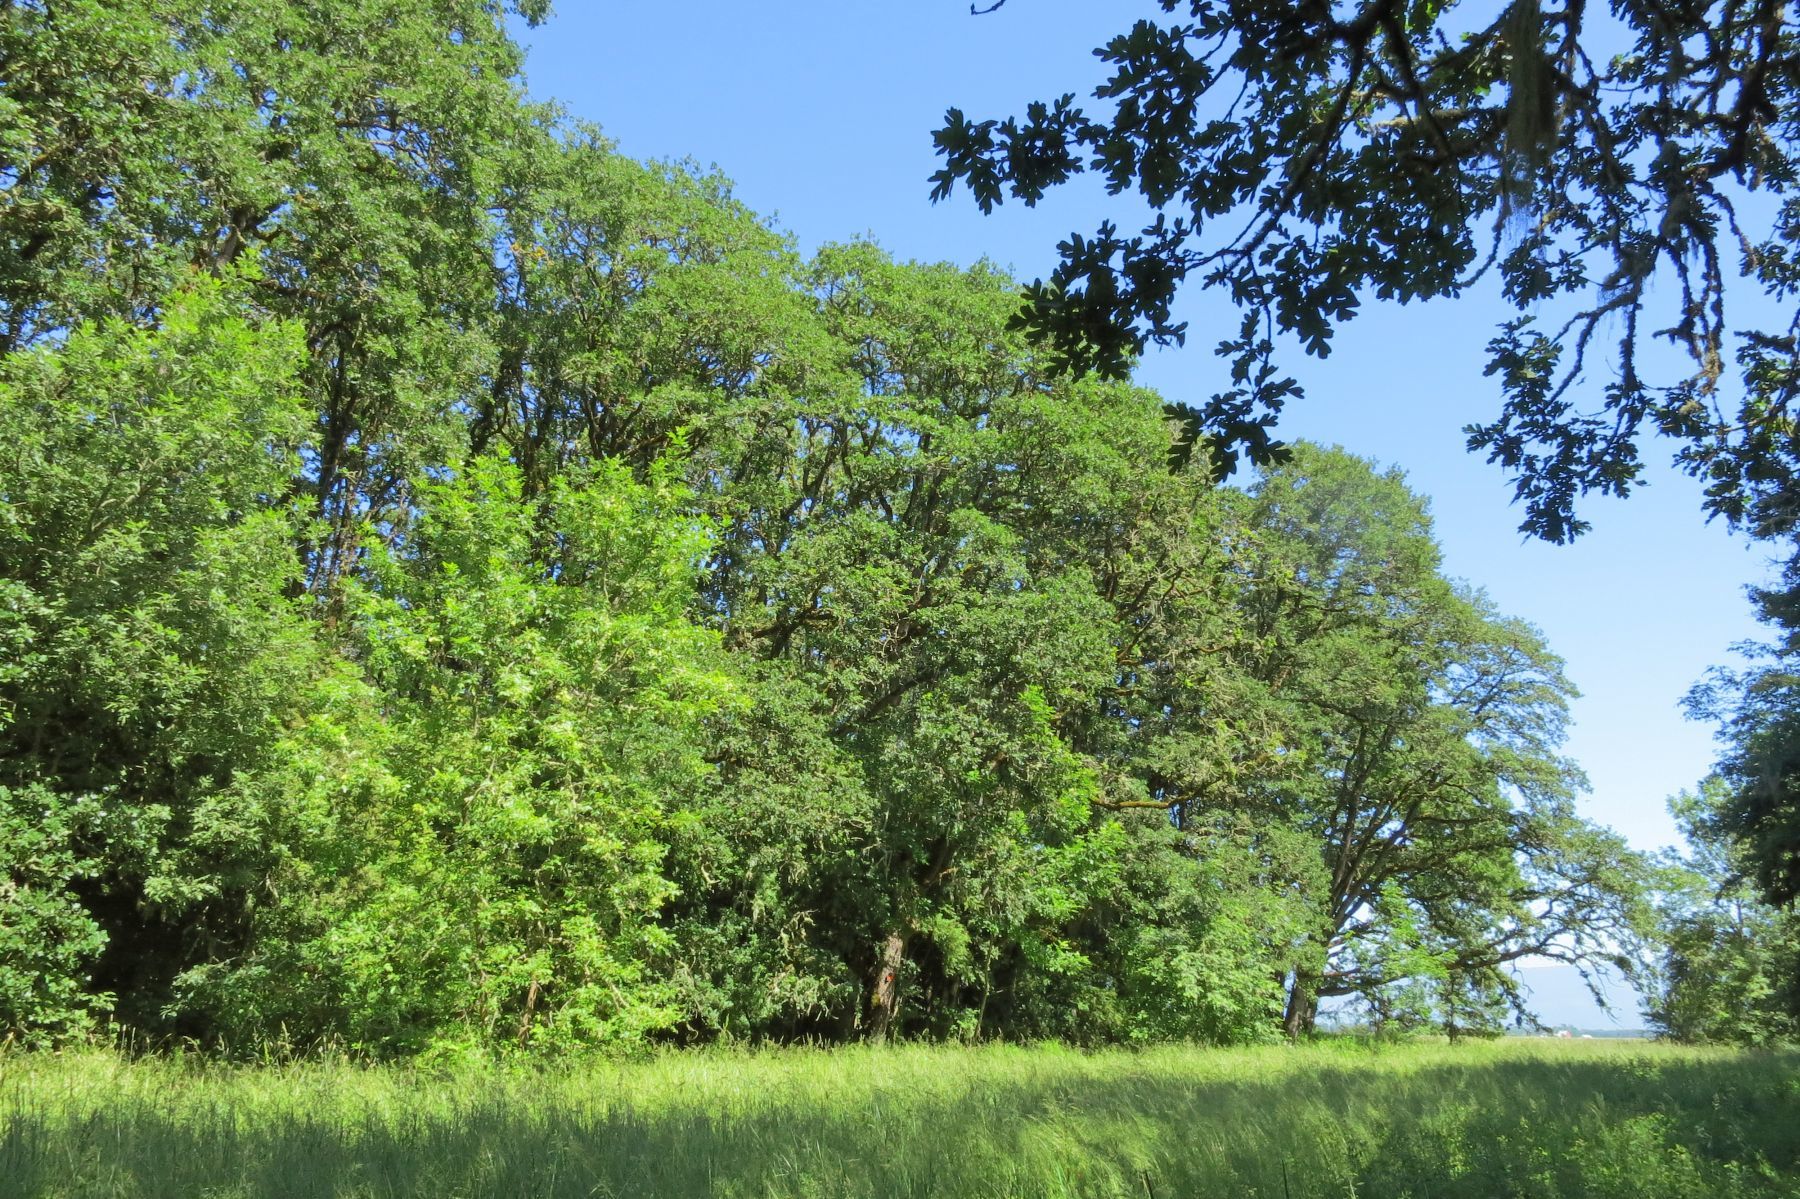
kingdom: Plantae
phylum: Tracheophyta
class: Magnoliopsida
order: Fagales
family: Fagaceae
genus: Quercus
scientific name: Quercus garryana
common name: Garry oak
